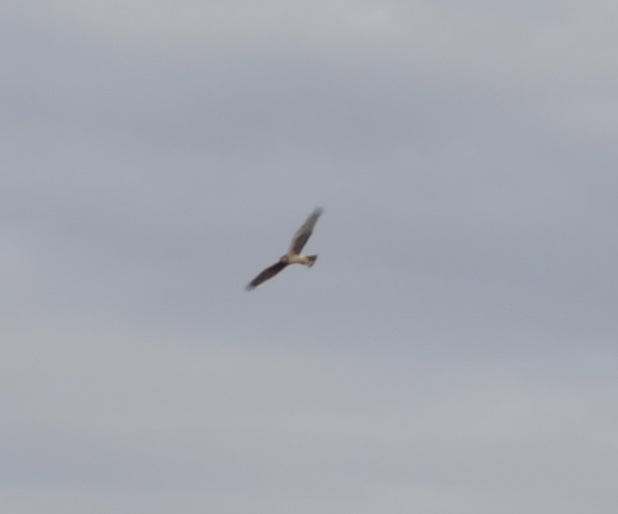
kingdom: Animalia
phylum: Chordata
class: Aves
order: Accipitriformes
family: Accipitridae
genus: Circus
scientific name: Circus cyaneus
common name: Hen harrier
